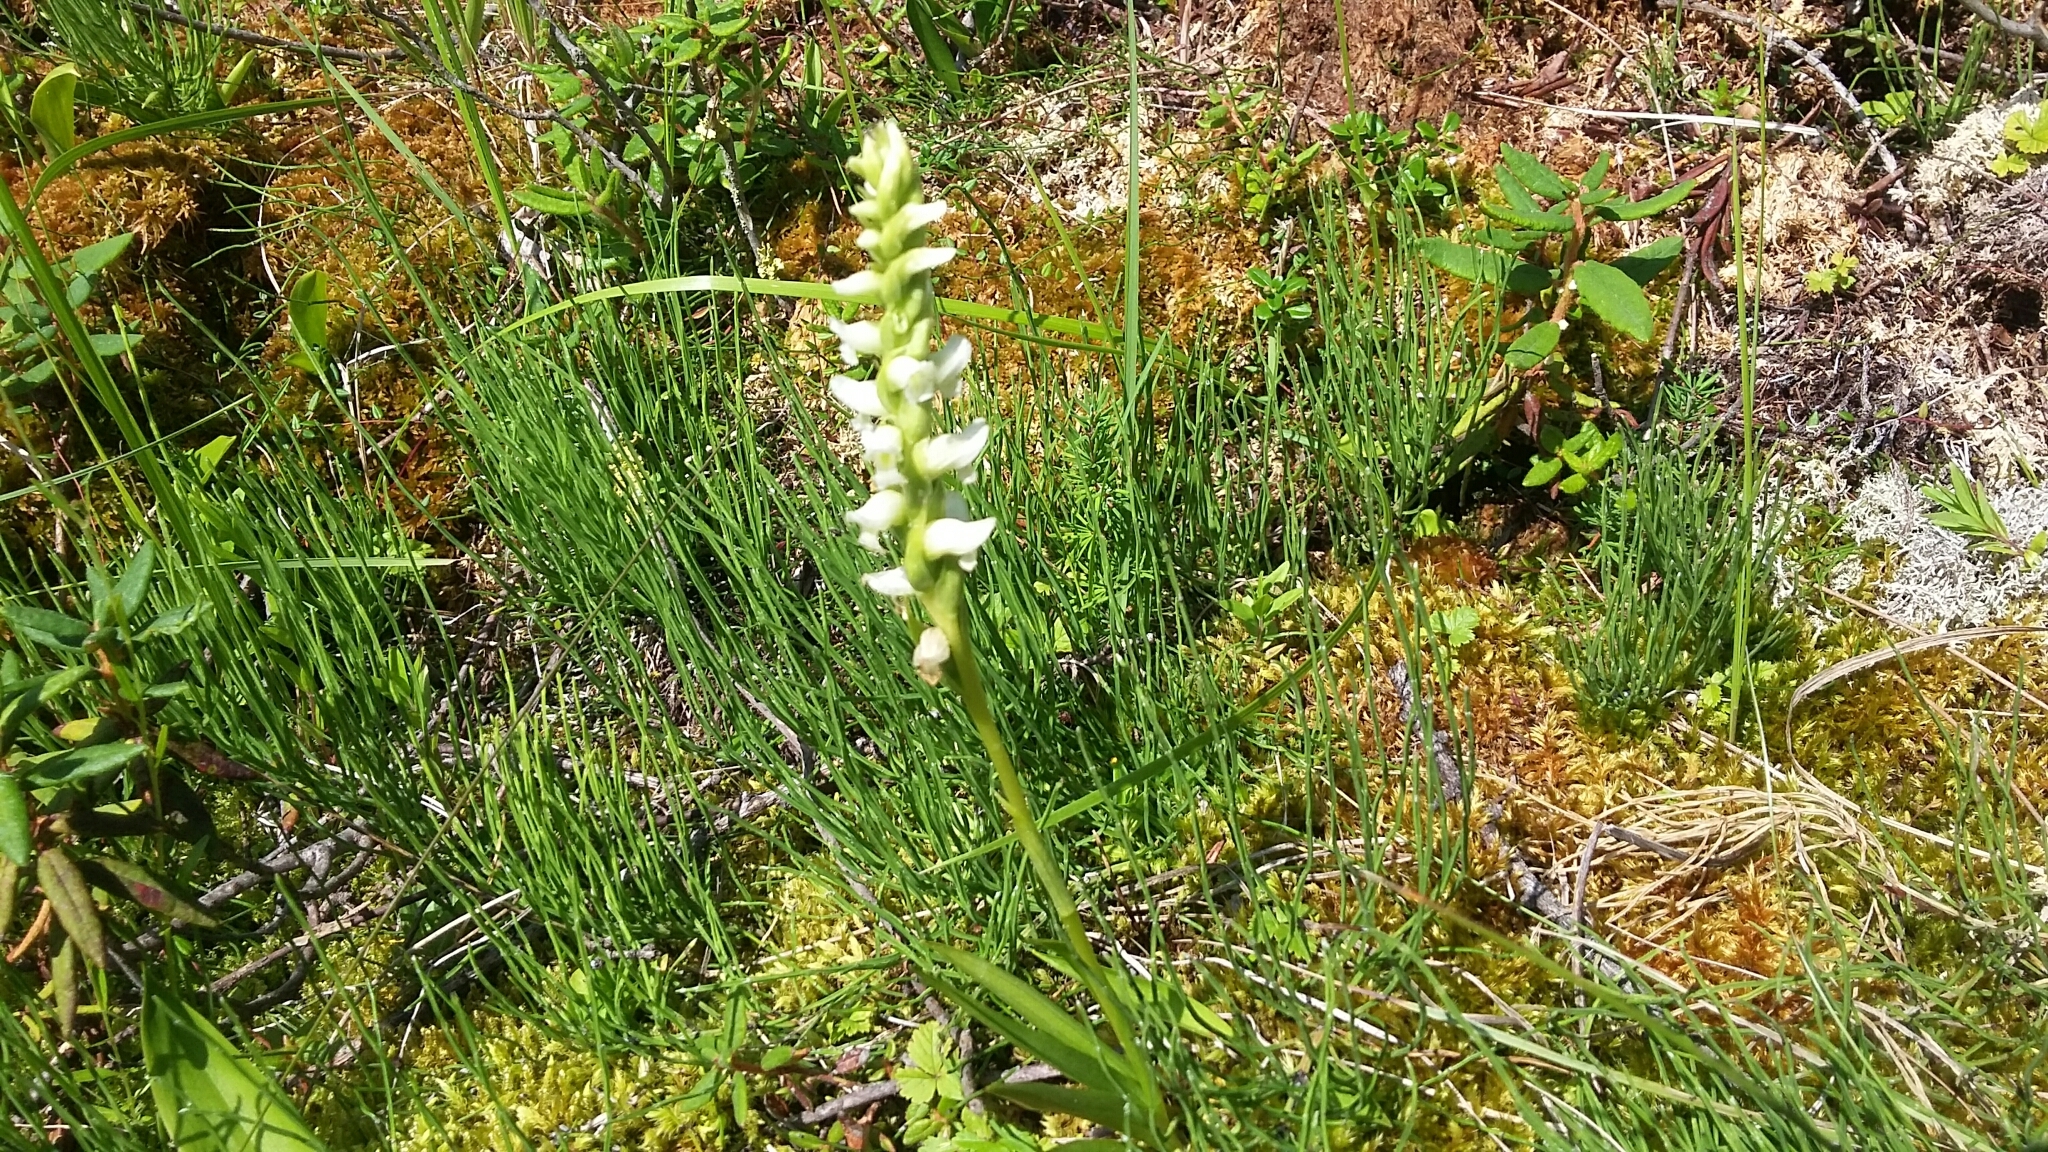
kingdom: Plantae
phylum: Tracheophyta
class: Liliopsida
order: Asparagales
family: Orchidaceae
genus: Spiranthes
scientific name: Spiranthes romanzoffiana
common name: Irish lady's-tresses
